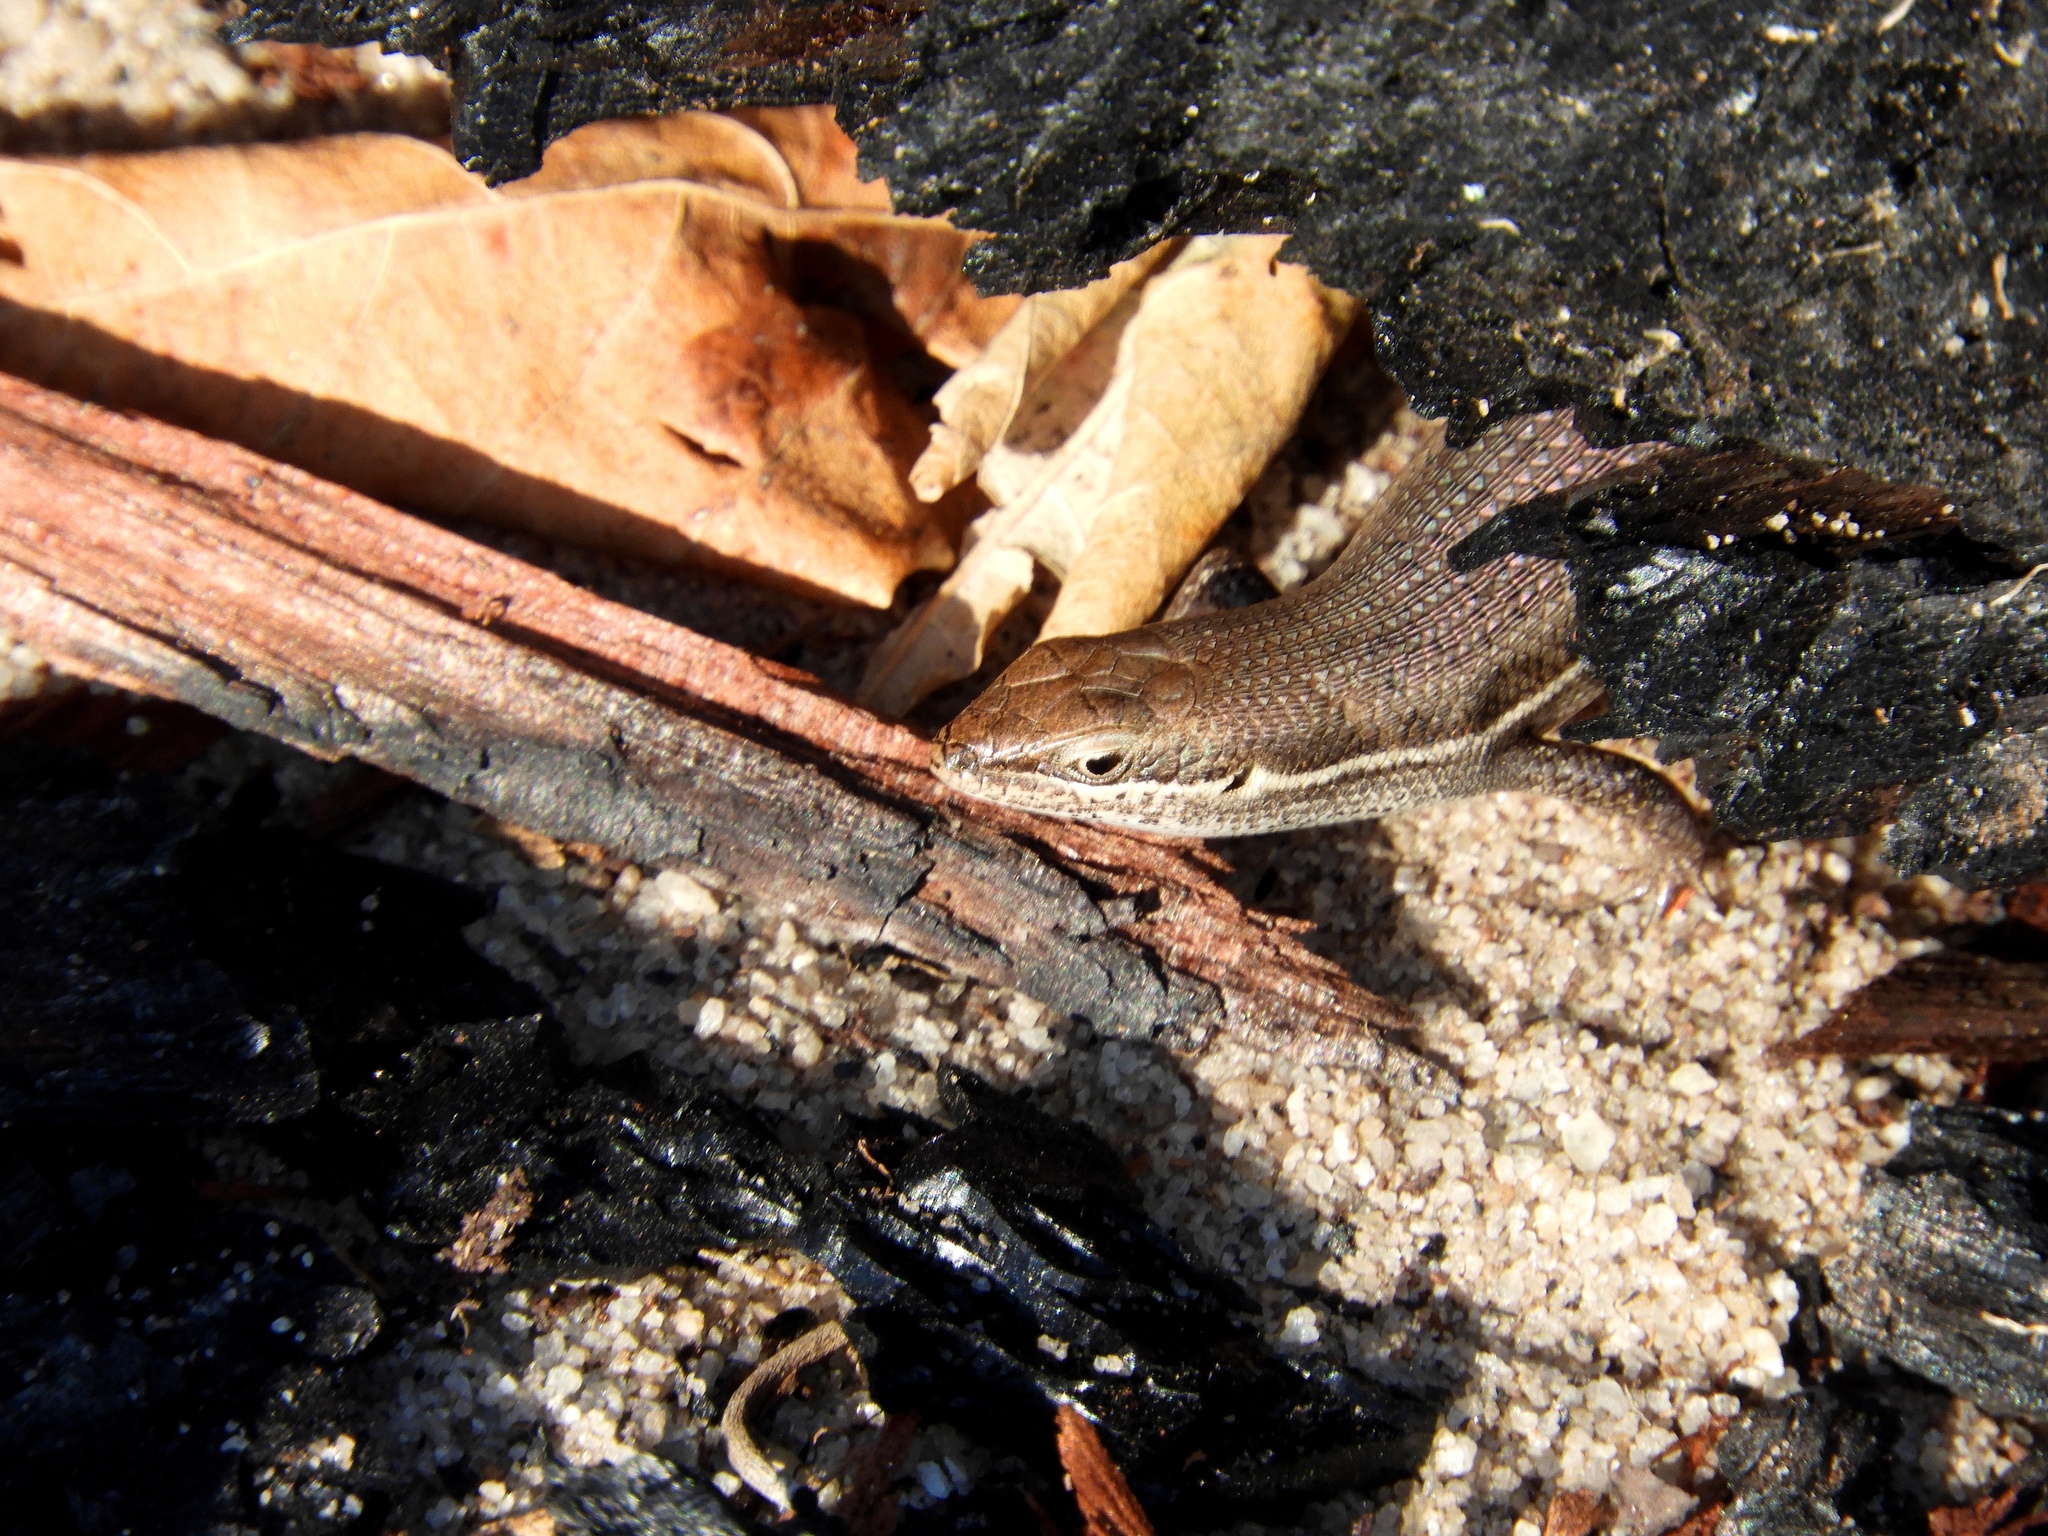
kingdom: Animalia
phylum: Chordata
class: Squamata
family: Scincidae
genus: Trachylepis
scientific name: Trachylepis varia
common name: Eastern variable skink
